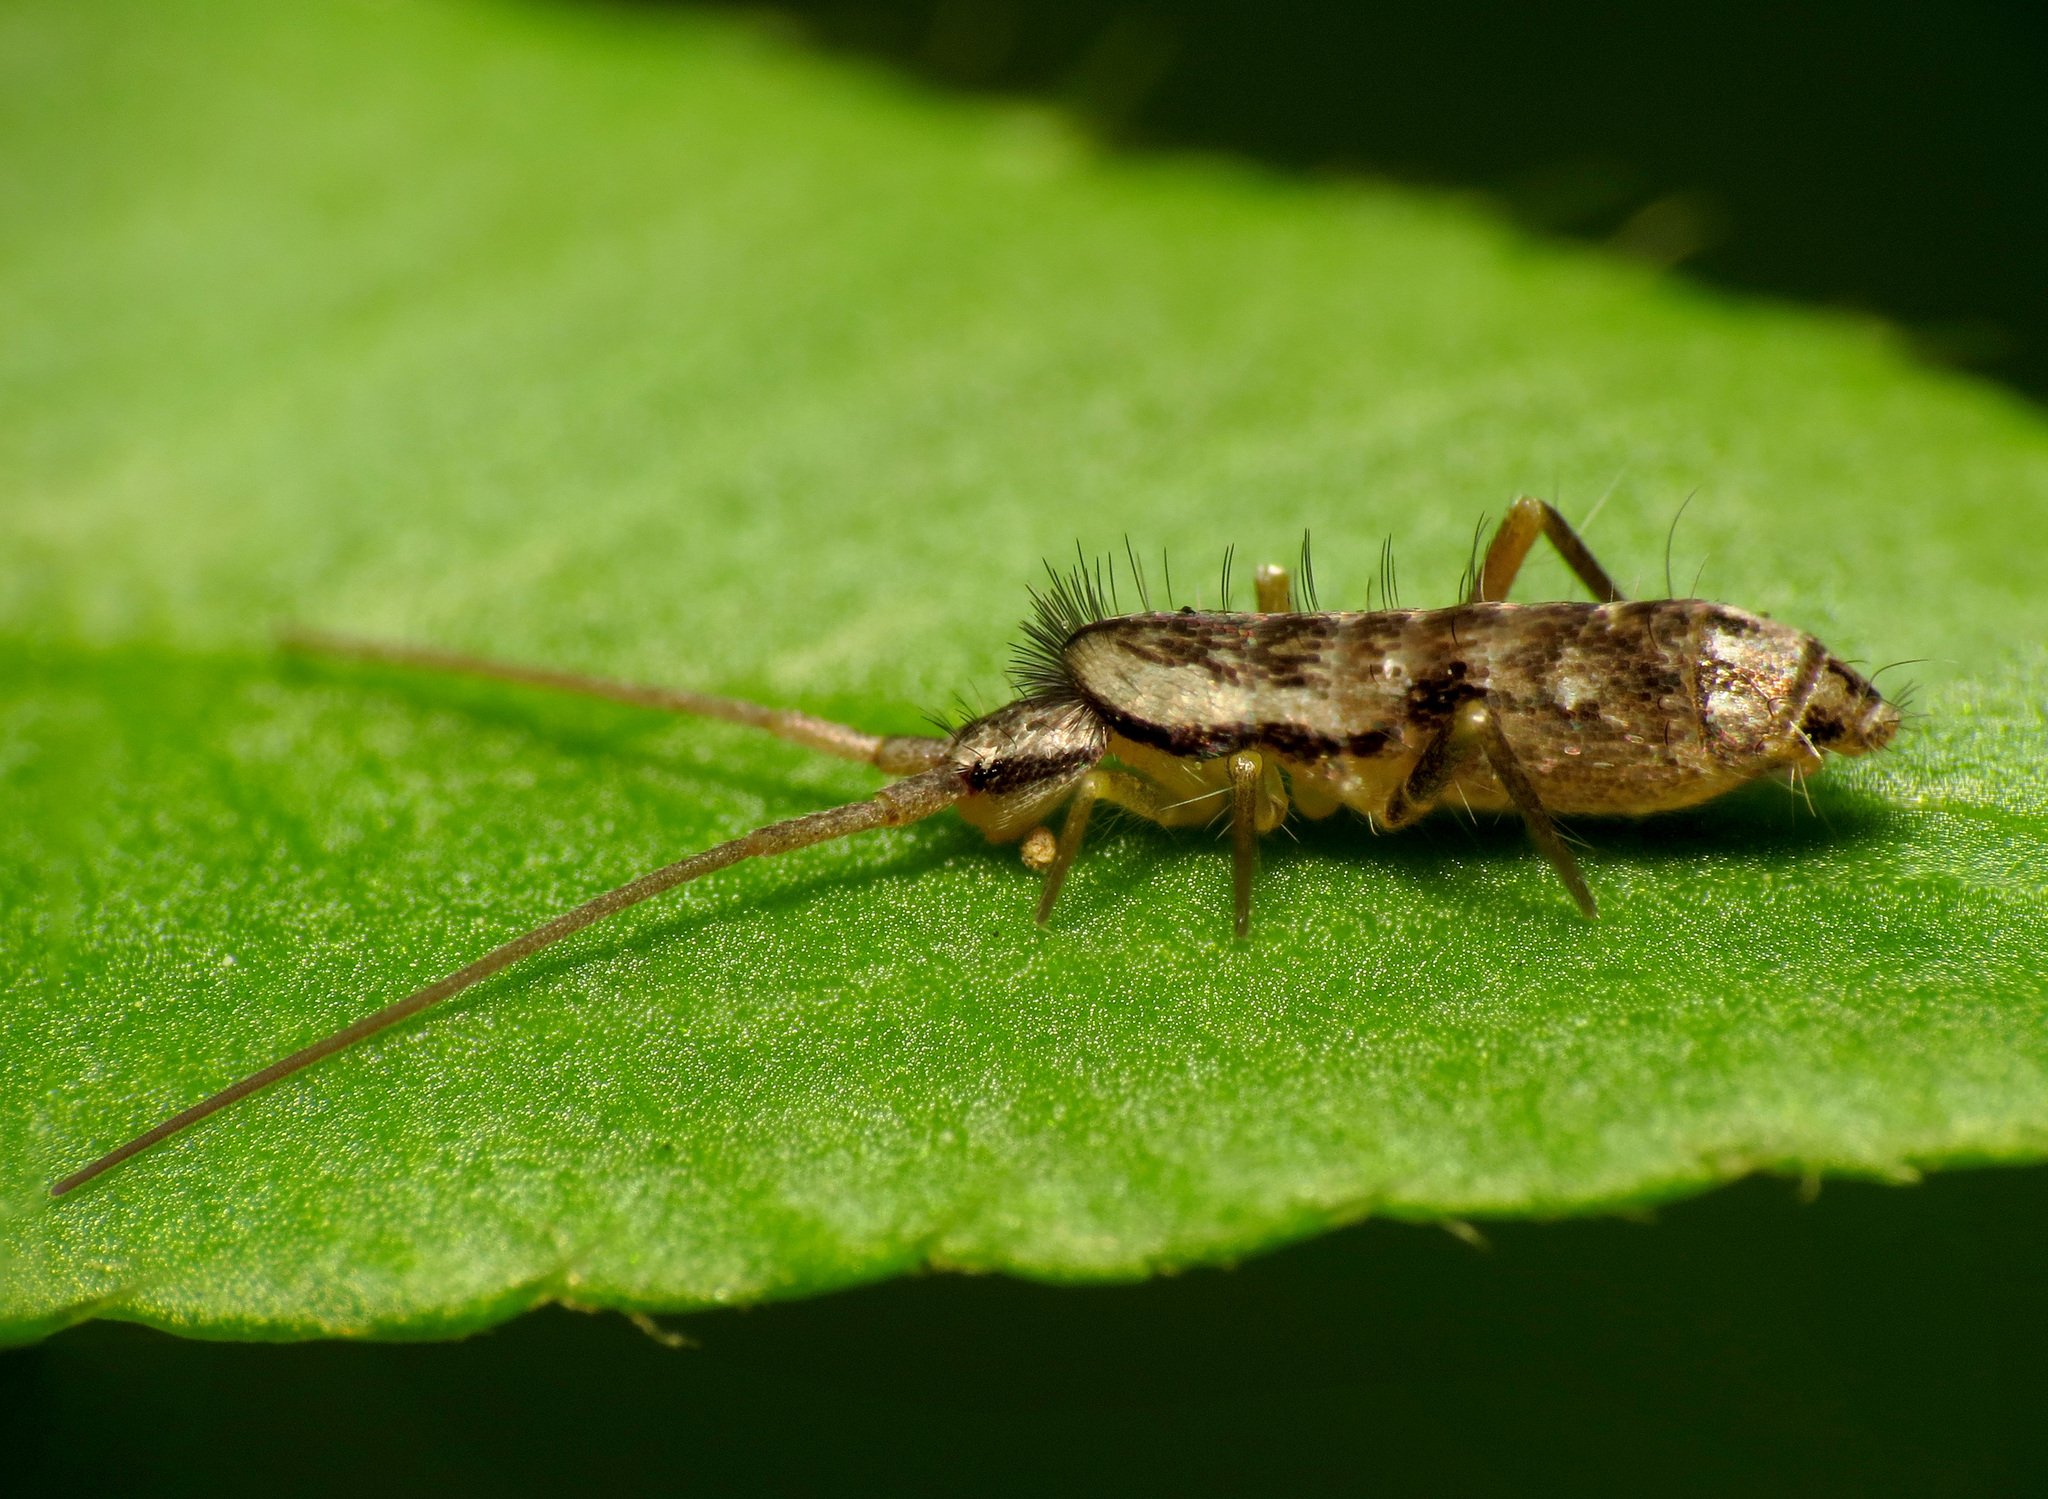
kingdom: Animalia
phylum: Arthropoda
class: Collembola
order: Entomobryomorpha
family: Tomoceridae
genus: Pogonognathellus
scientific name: Pogonognathellus elongatus
